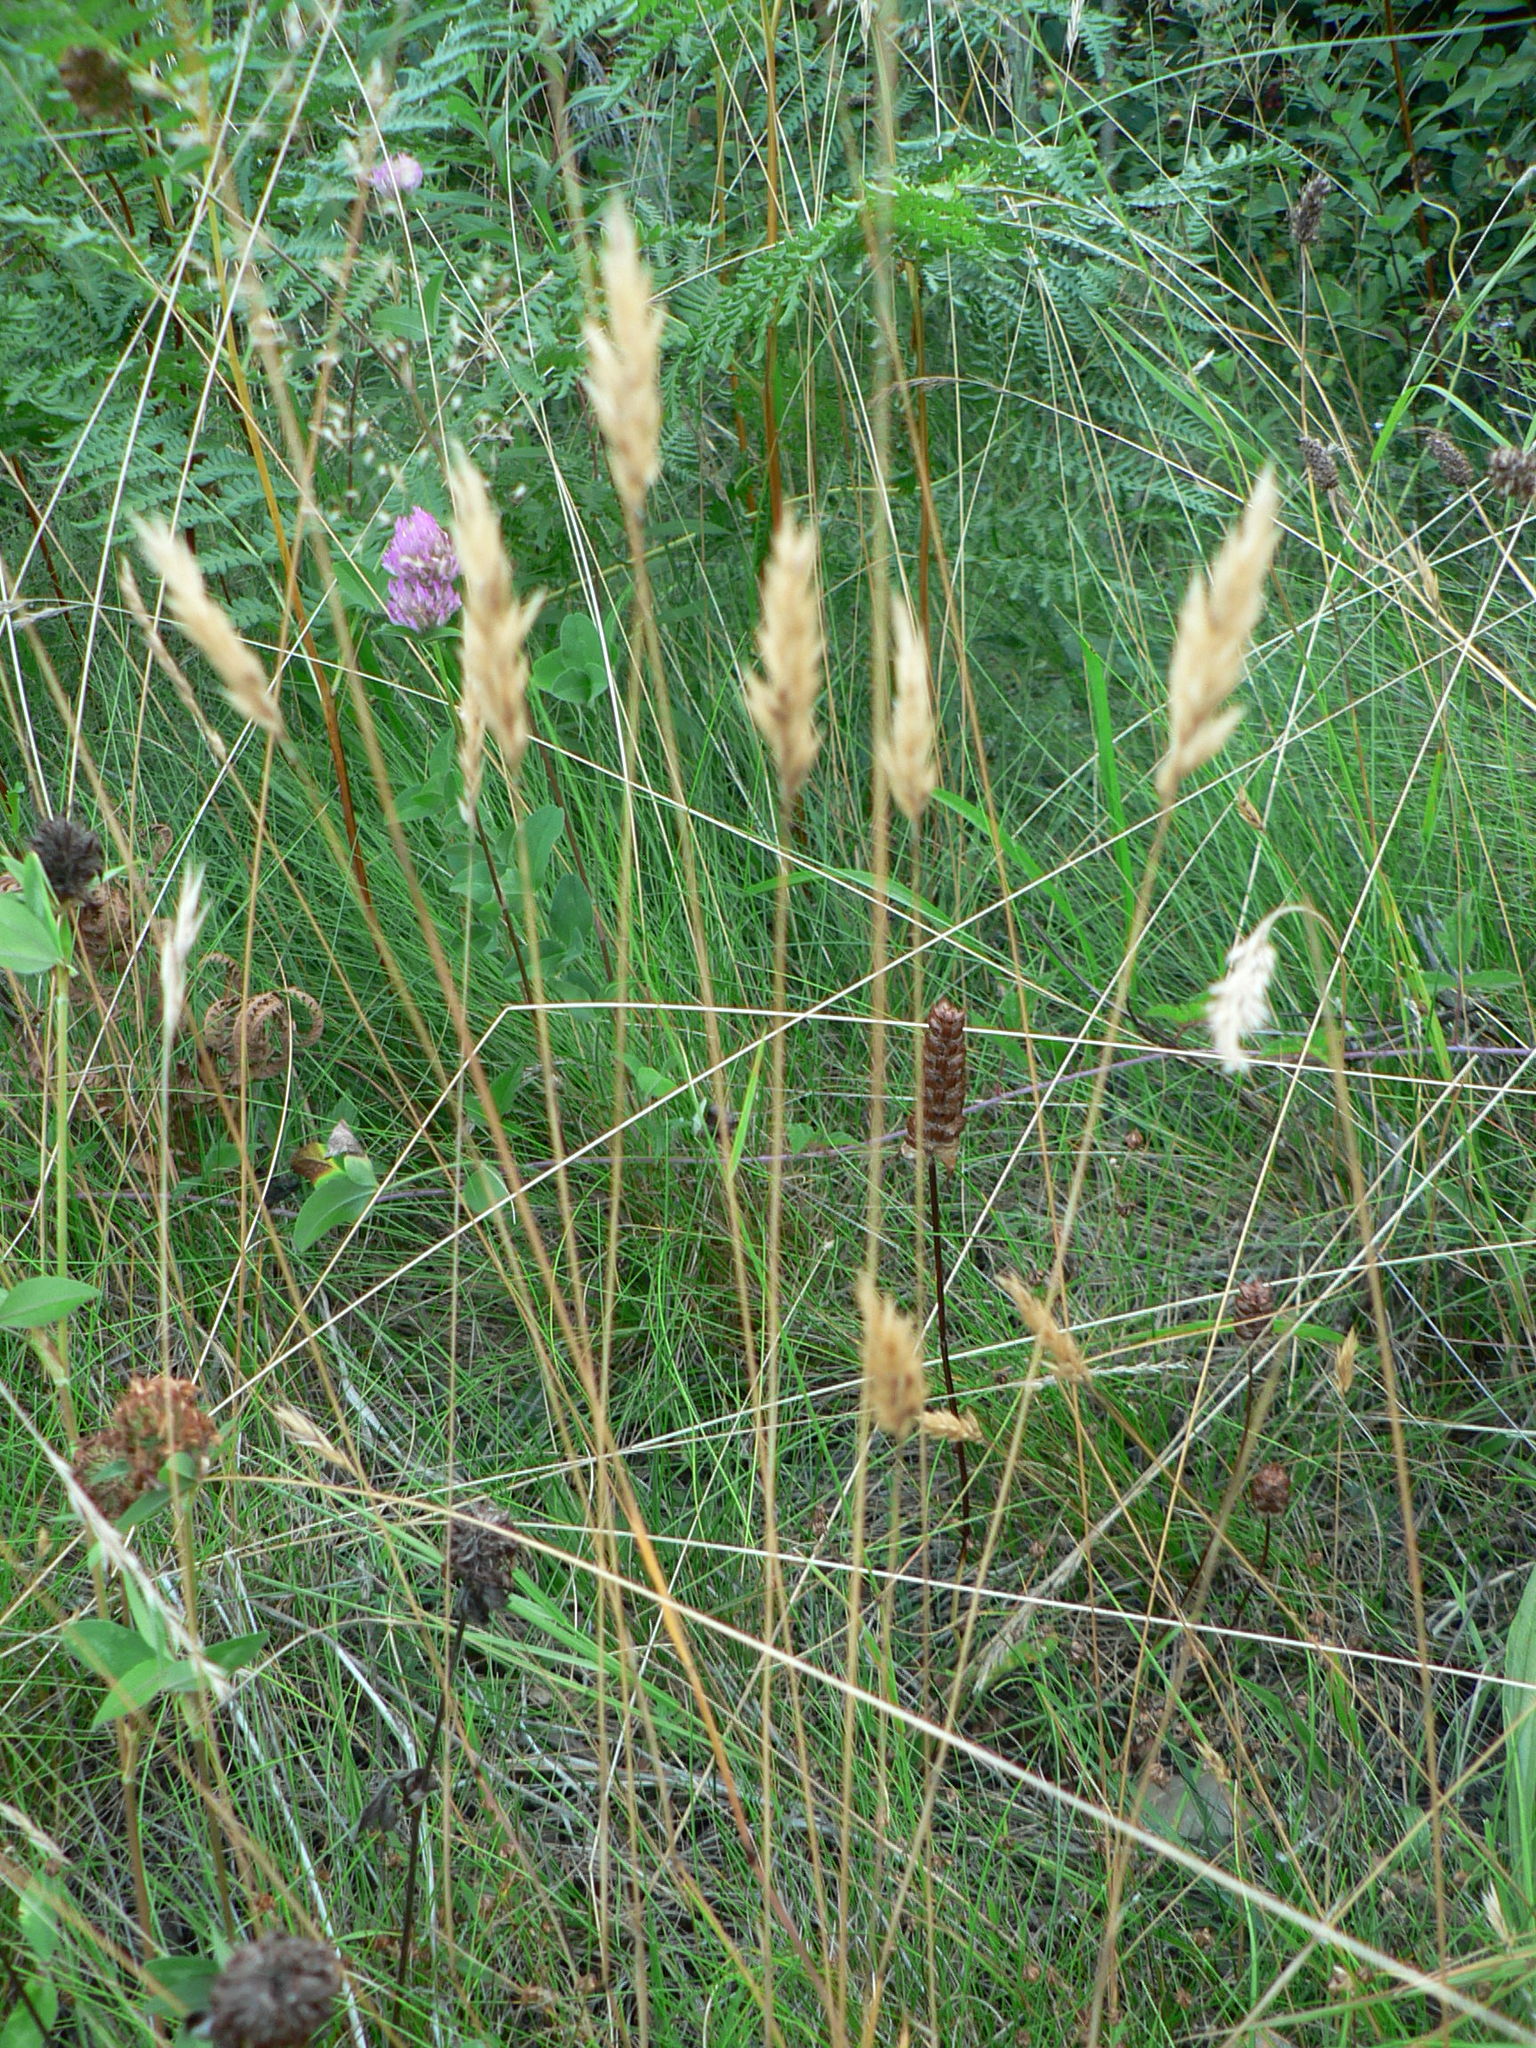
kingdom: Plantae
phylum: Tracheophyta
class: Liliopsida
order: Poales
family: Poaceae
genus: Anthoxanthum
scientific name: Anthoxanthum odoratum
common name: Sweet vernalgrass
